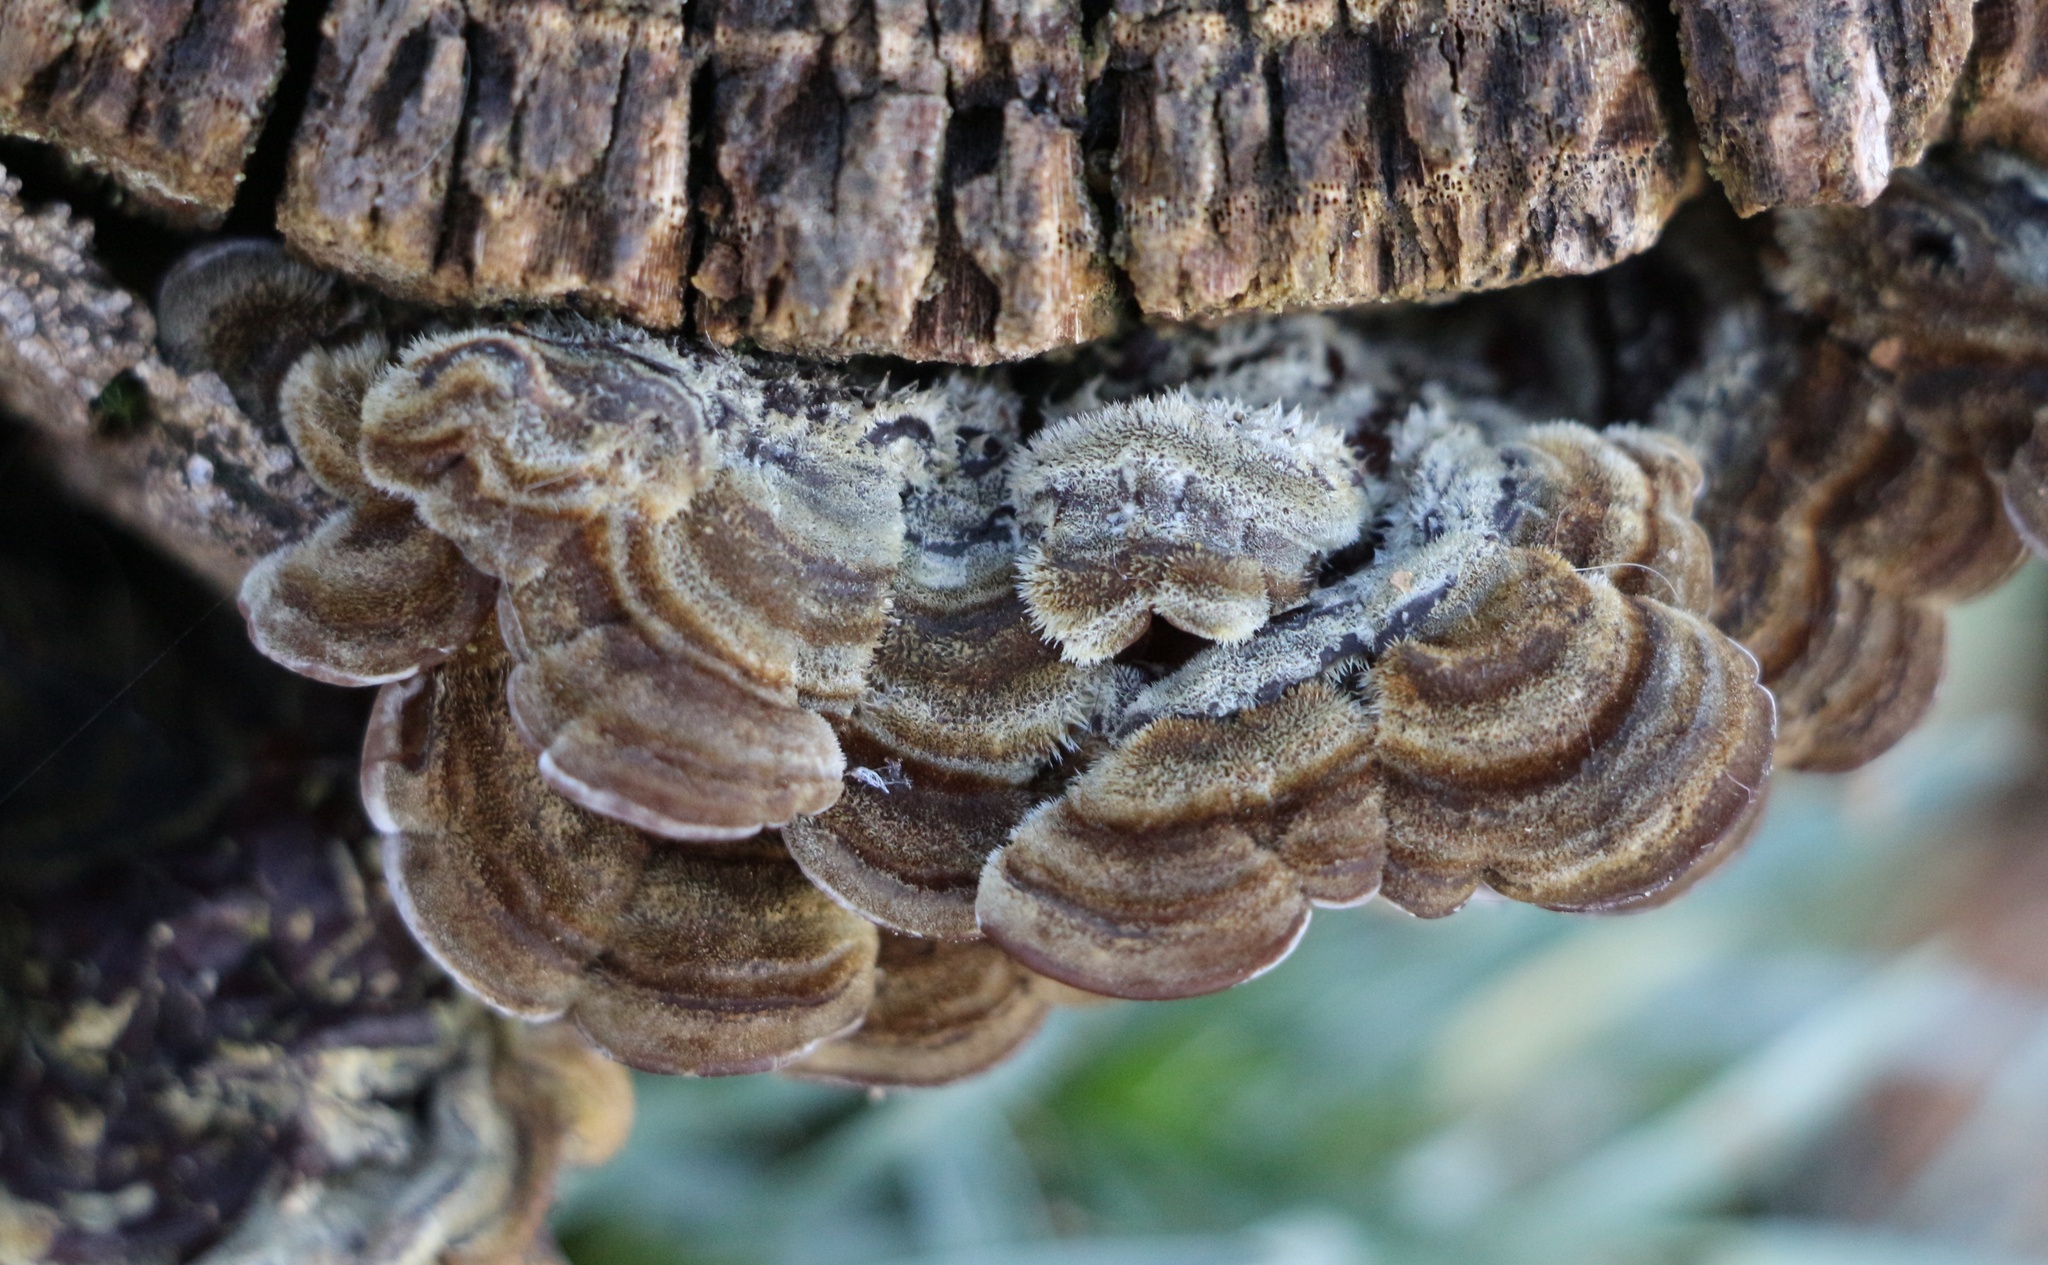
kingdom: Fungi
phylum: Basidiomycota
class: Agaricomycetes
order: Auriculariales
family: Auriculariaceae
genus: Auricularia
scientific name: Auricularia mesenterica
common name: Tripe fungus
